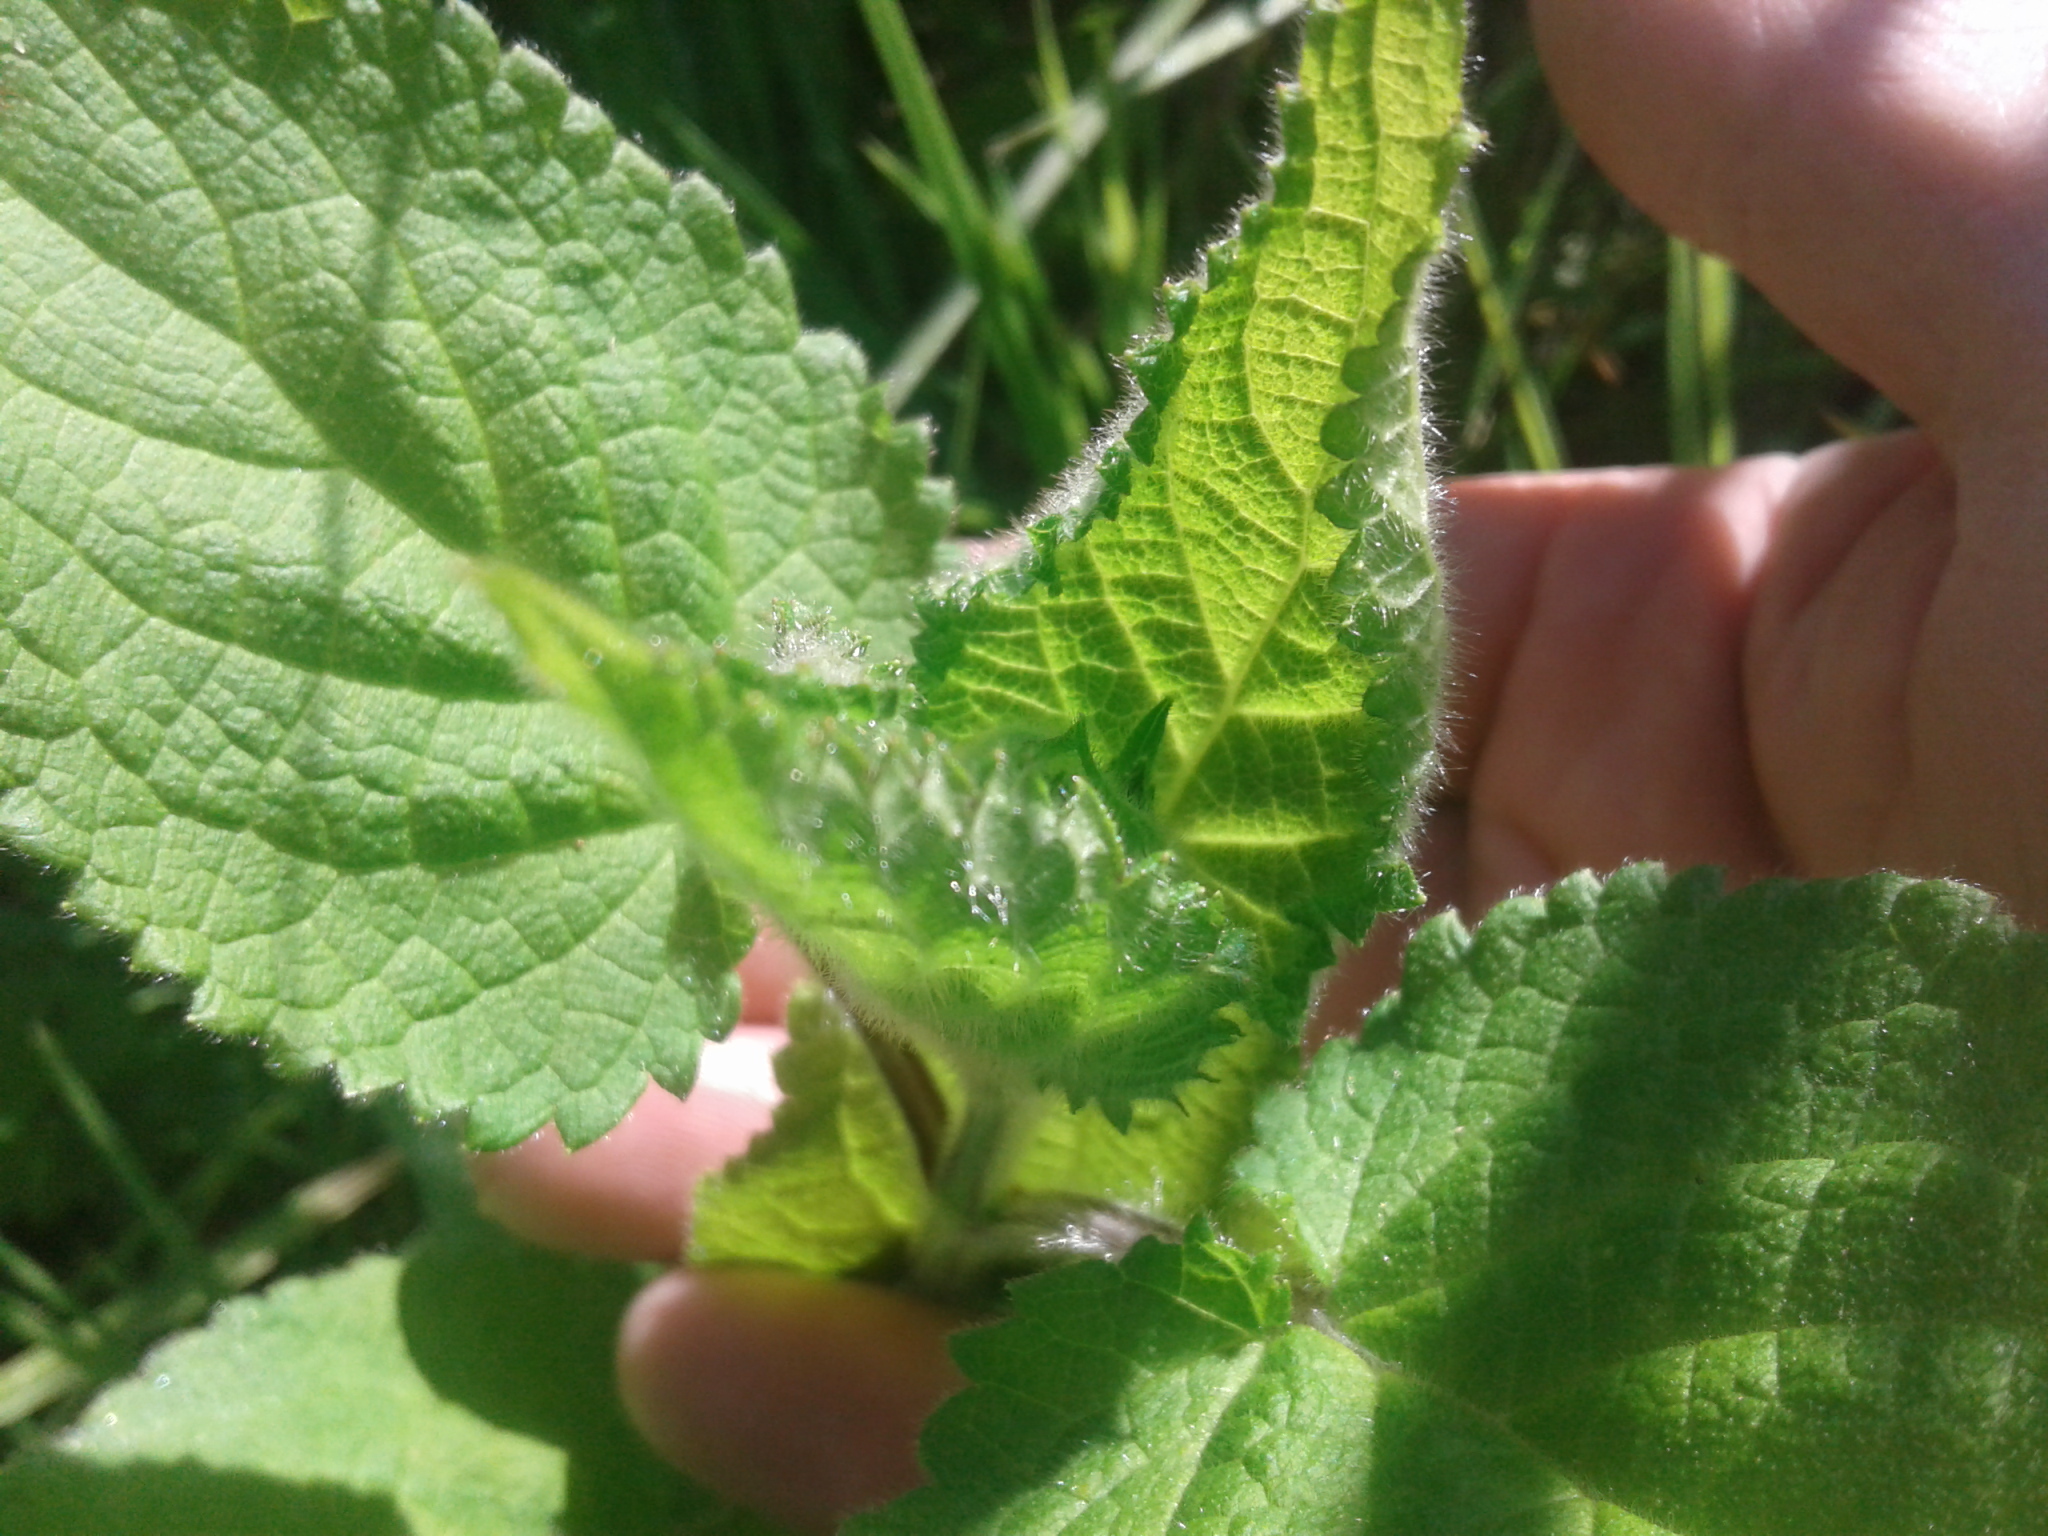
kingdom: Plantae
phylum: Tracheophyta
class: Magnoliopsida
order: Lamiales
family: Lamiaceae
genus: Stachys
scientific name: Stachys sylvatica
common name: Hedge woundwort
